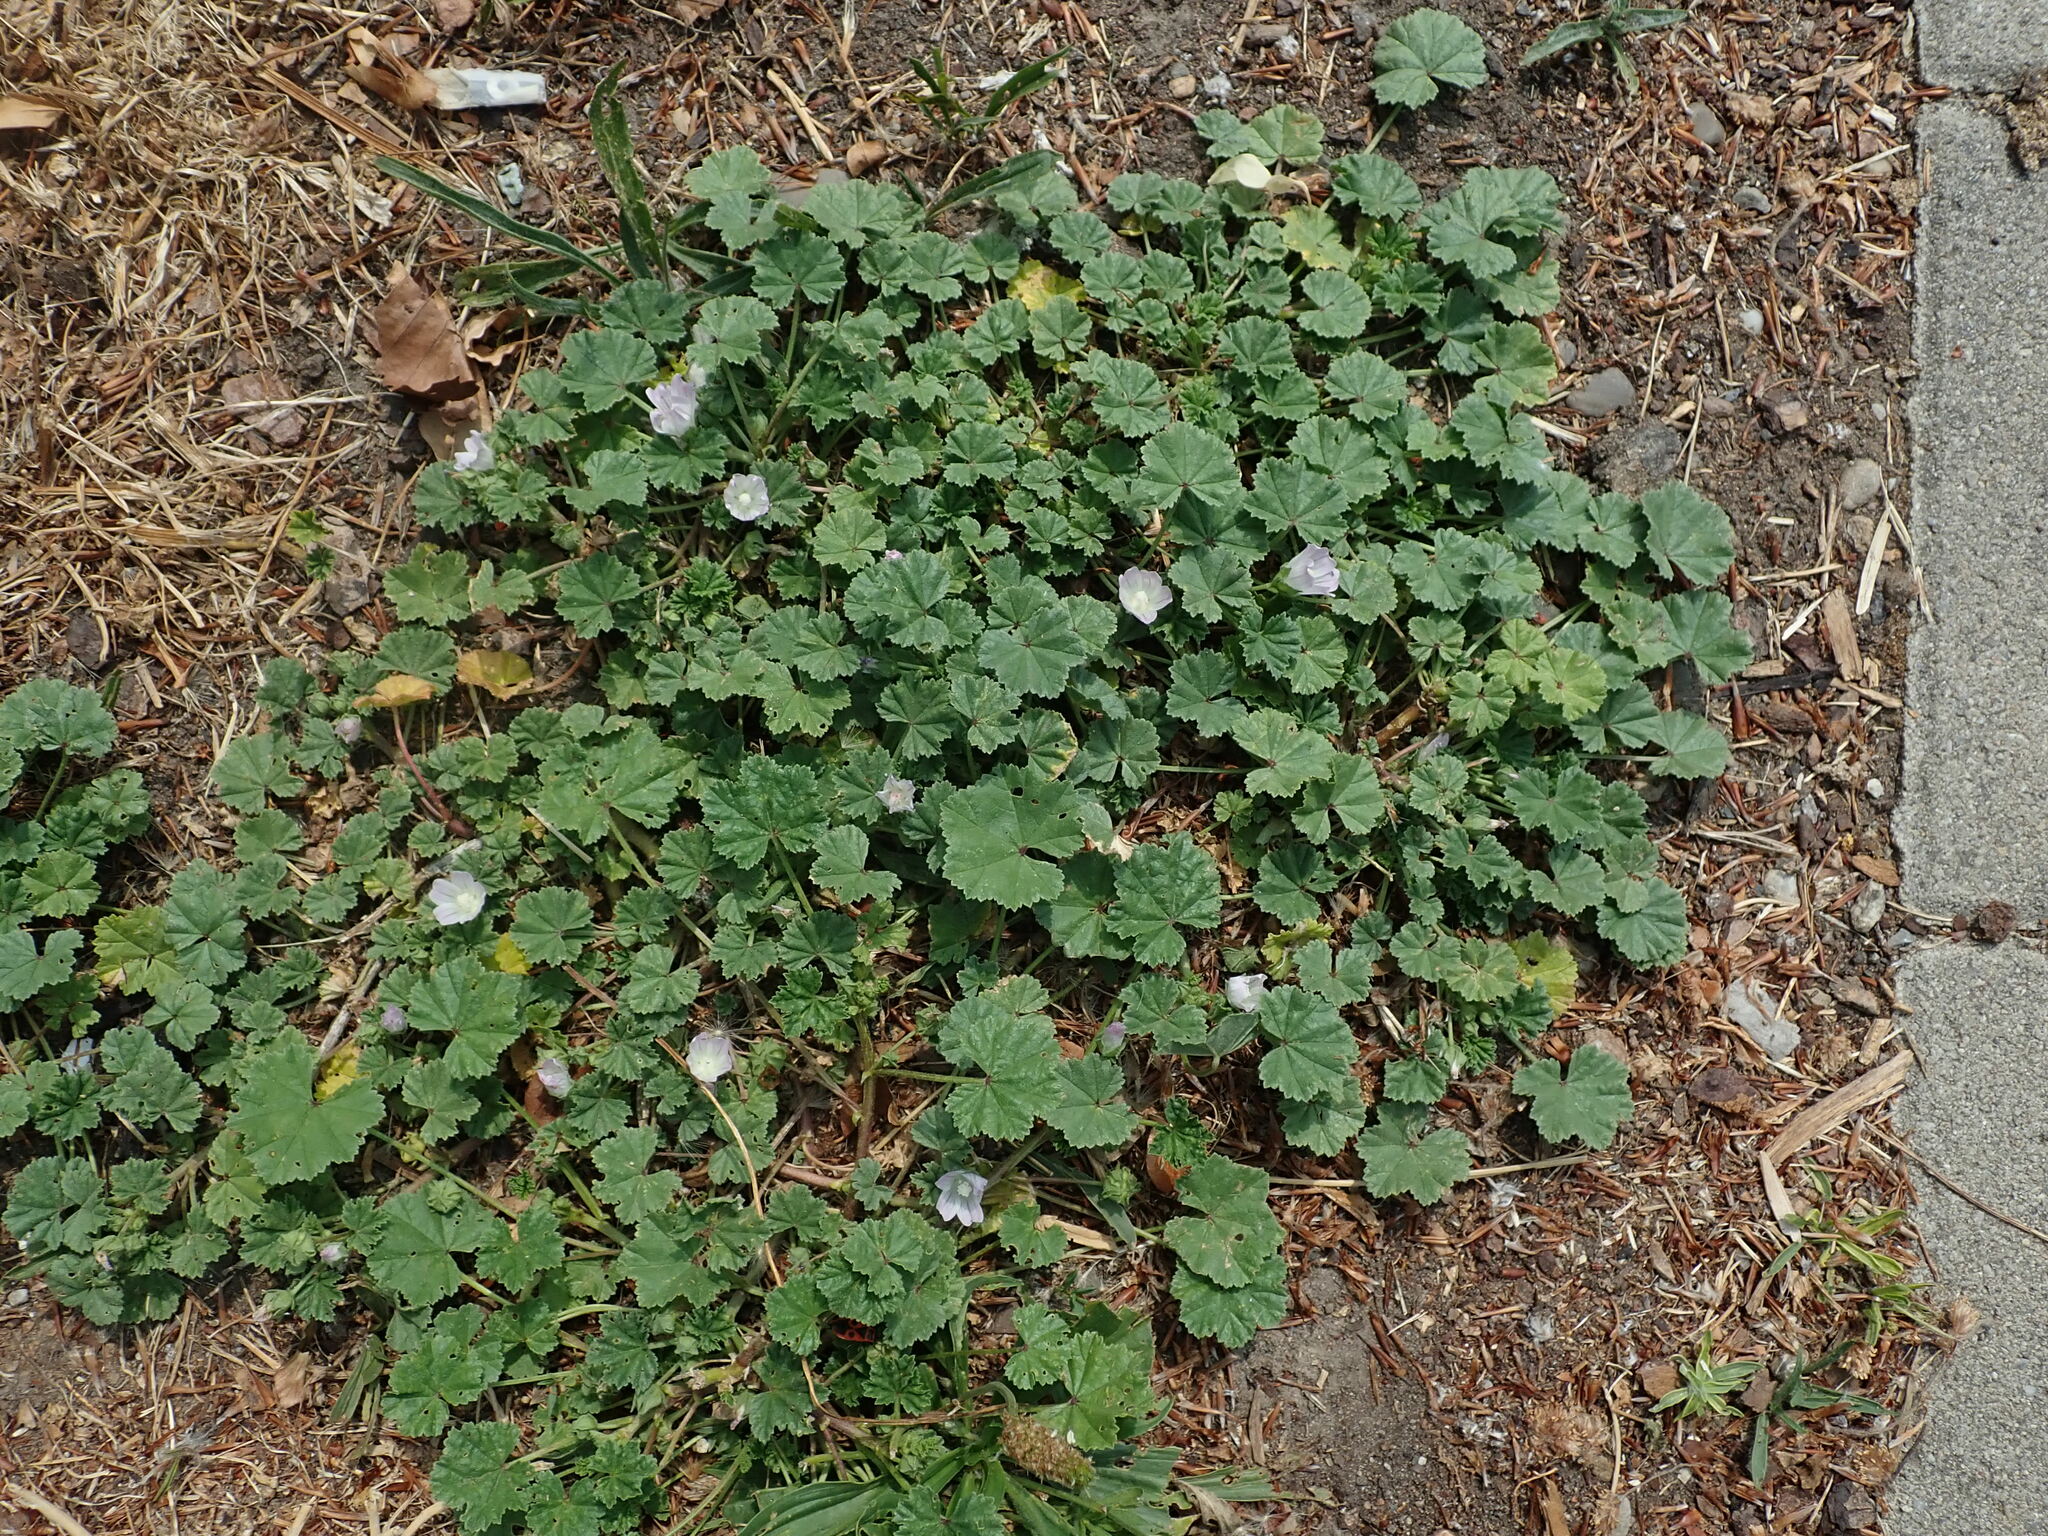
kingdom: Plantae
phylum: Tracheophyta
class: Magnoliopsida
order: Malvales
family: Malvaceae
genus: Malva
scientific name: Malva neglecta
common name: Common mallow
